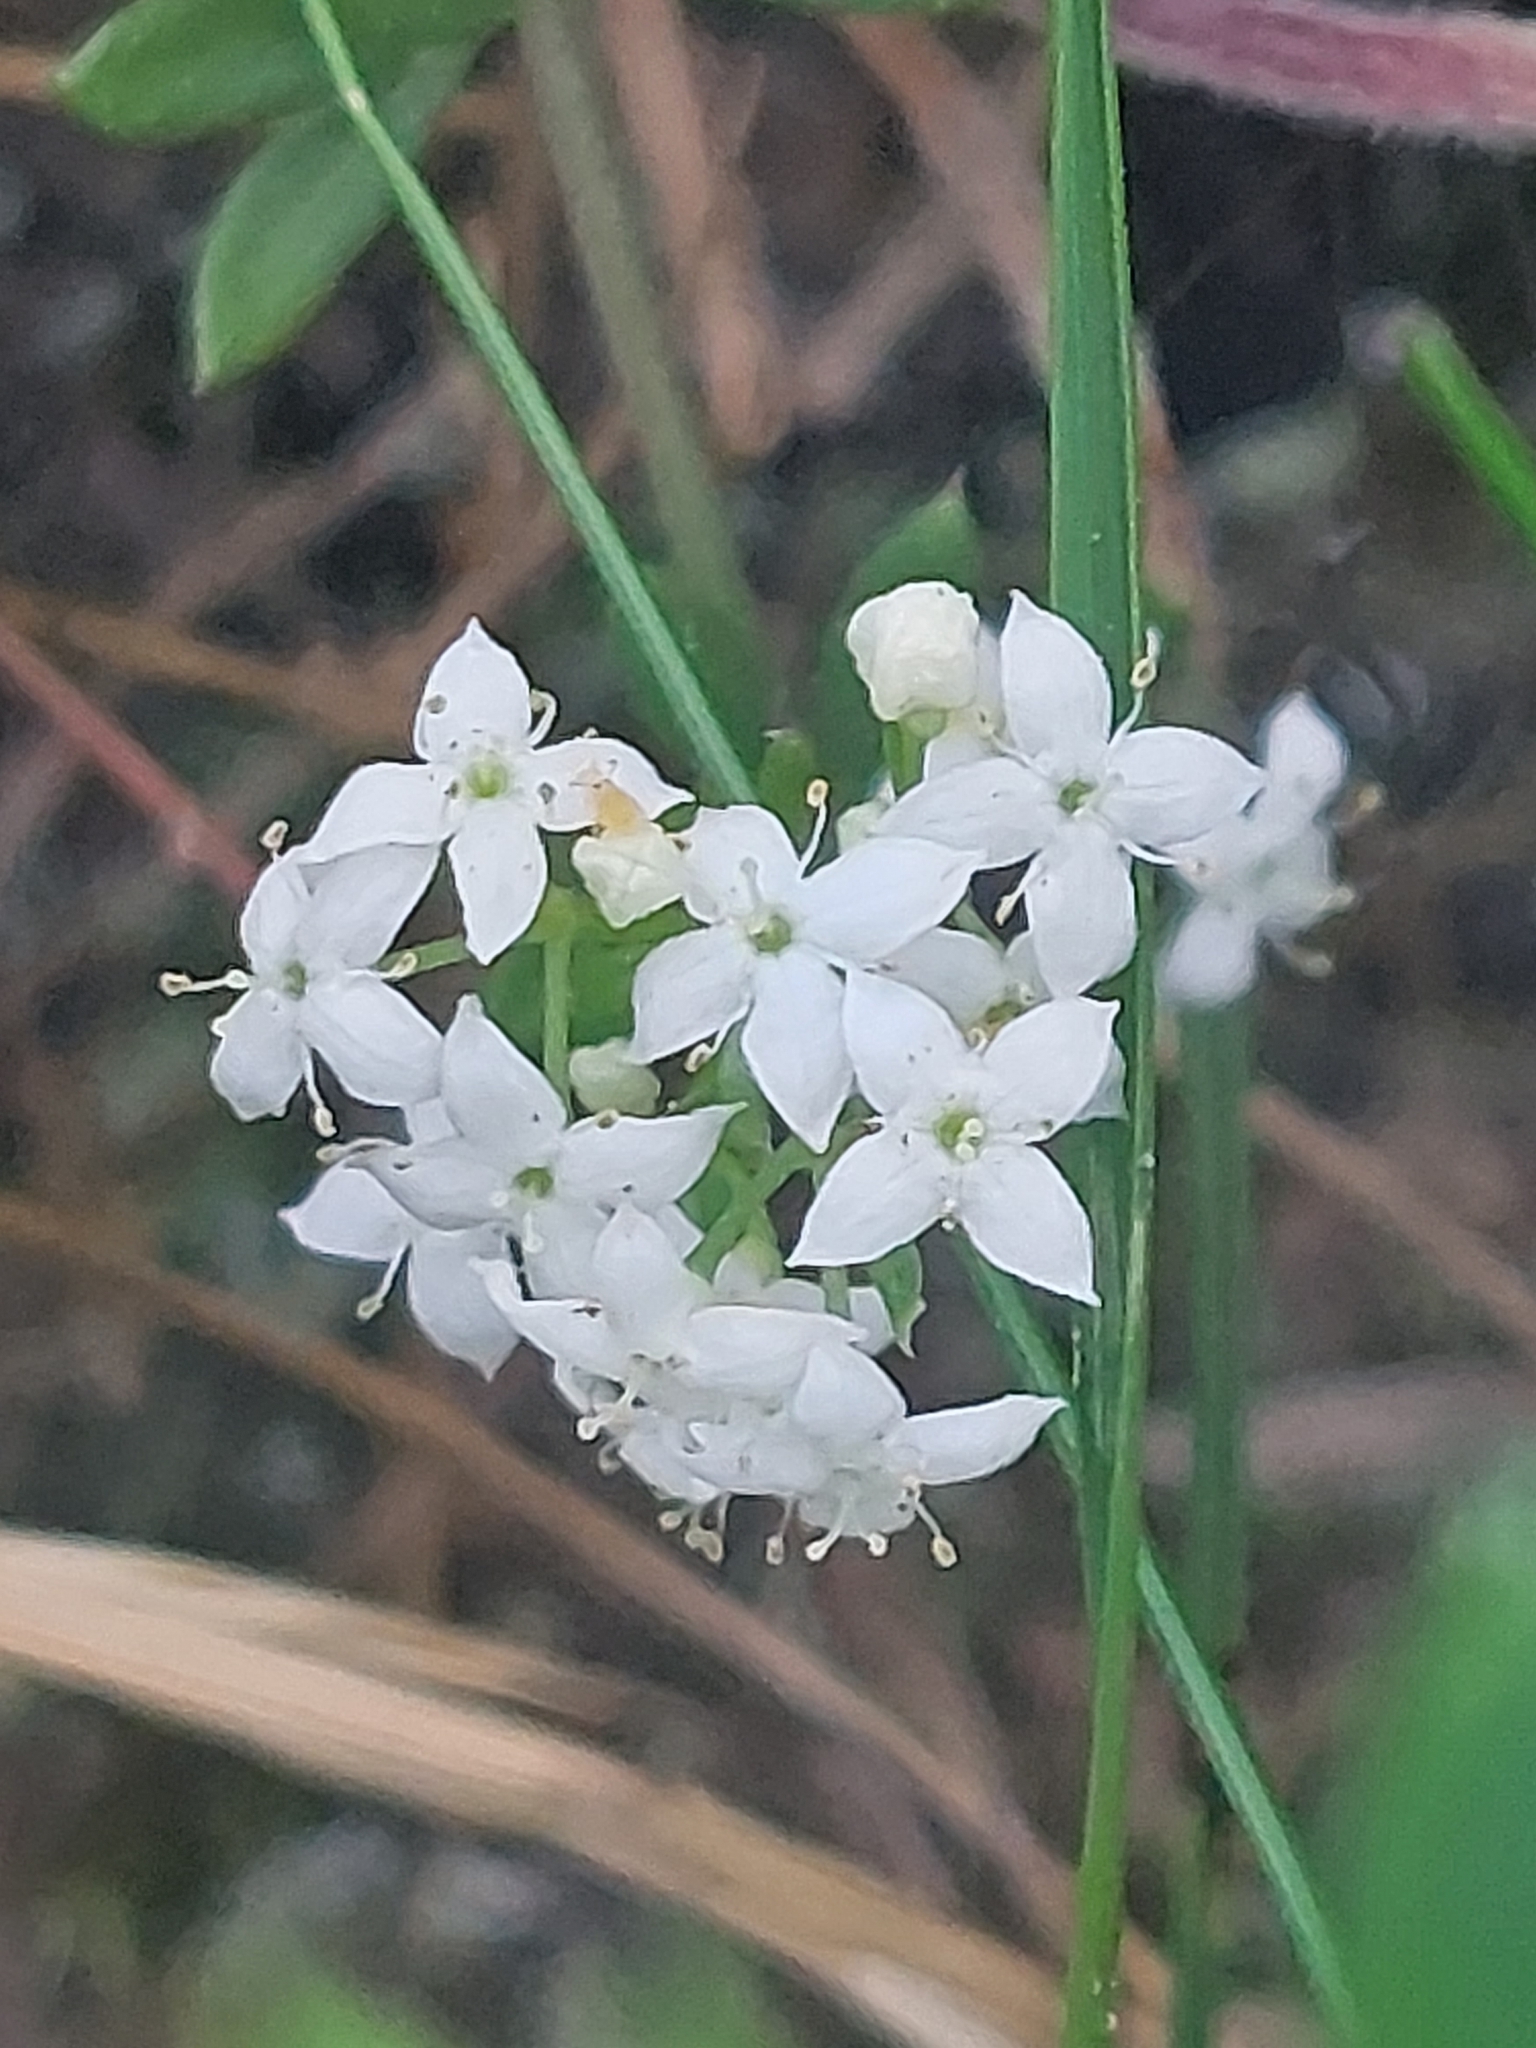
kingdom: Plantae
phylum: Tracheophyta
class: Magnoliopsida
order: Gentianales
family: Rubiaceae
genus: Galium
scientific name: Galium saxatile
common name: Heath bedstraw
